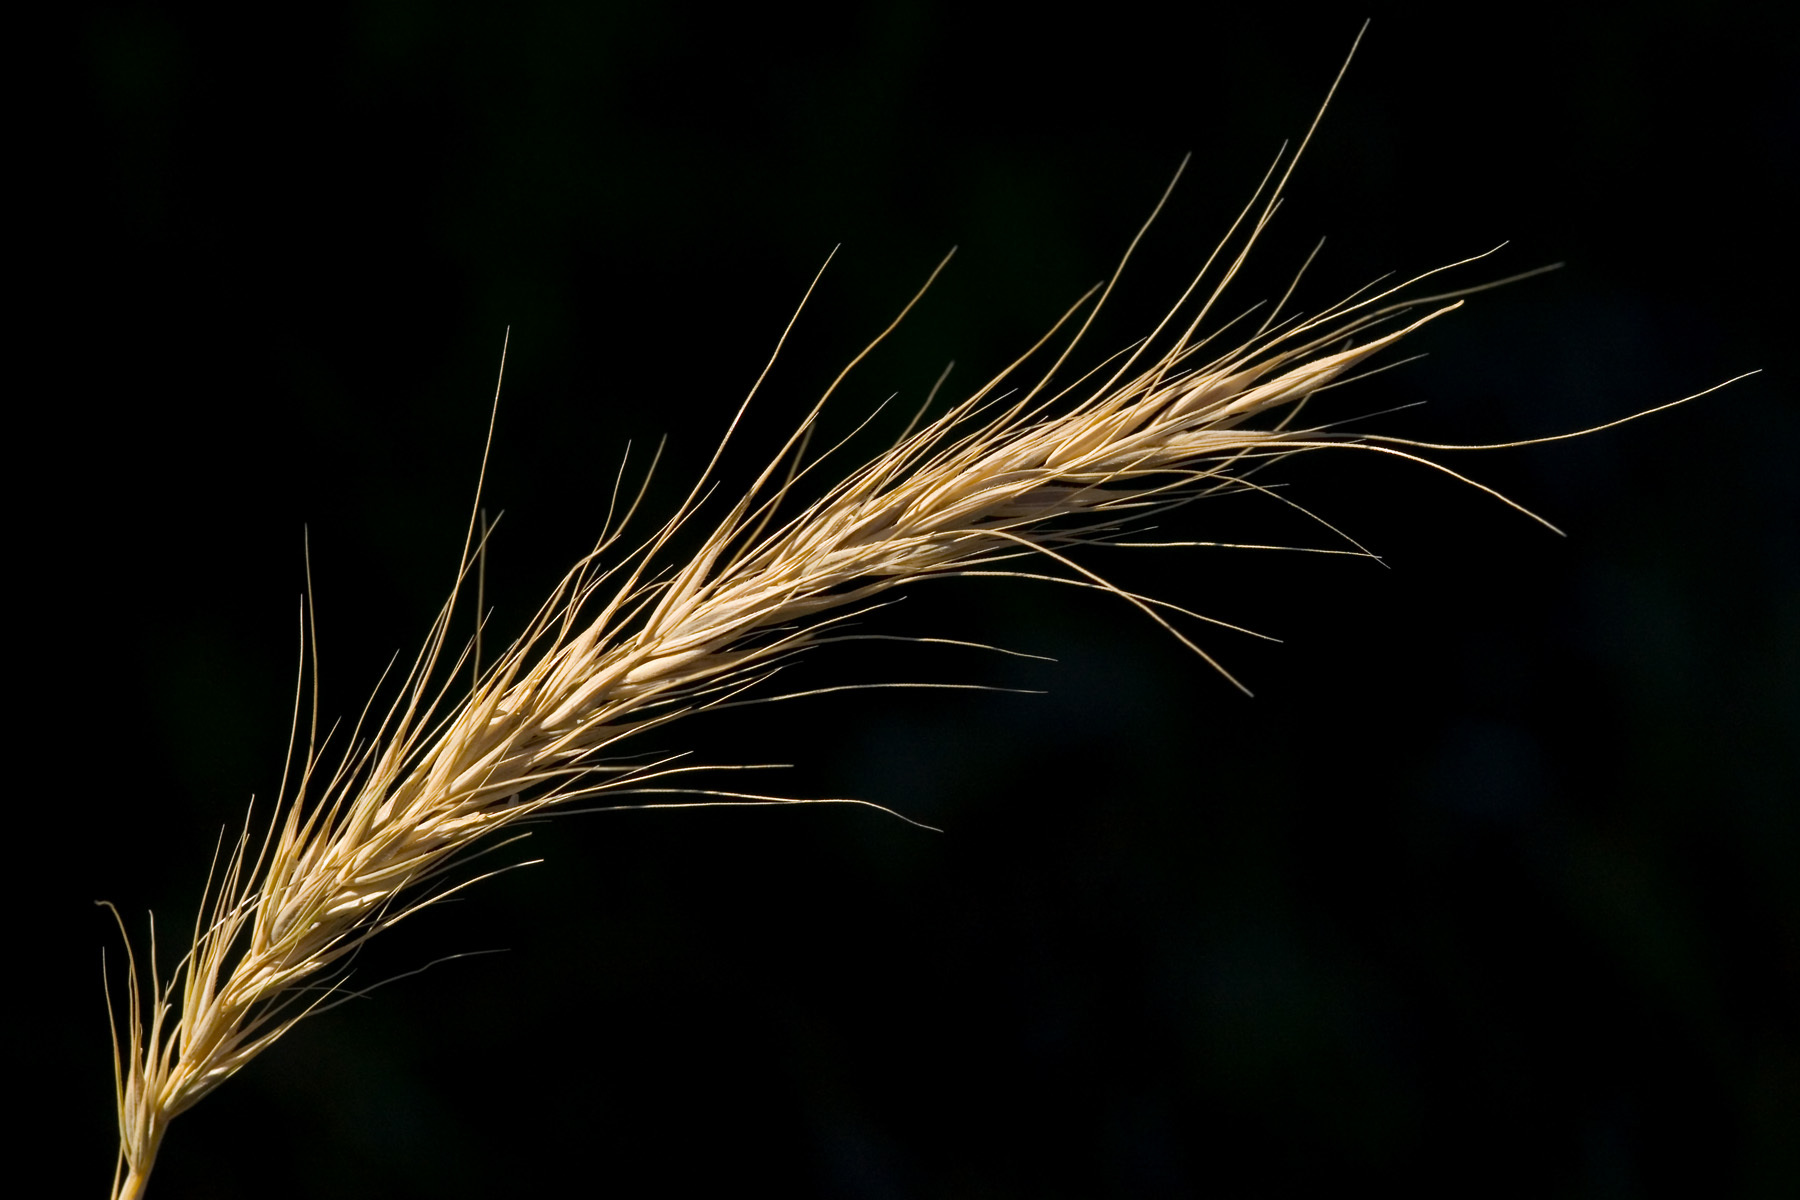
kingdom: Plantae
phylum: Tracheophyta
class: Liliopsida
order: Poales
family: Poaceae
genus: Elymus
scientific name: Elymus canadensis
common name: Canada wild rye
